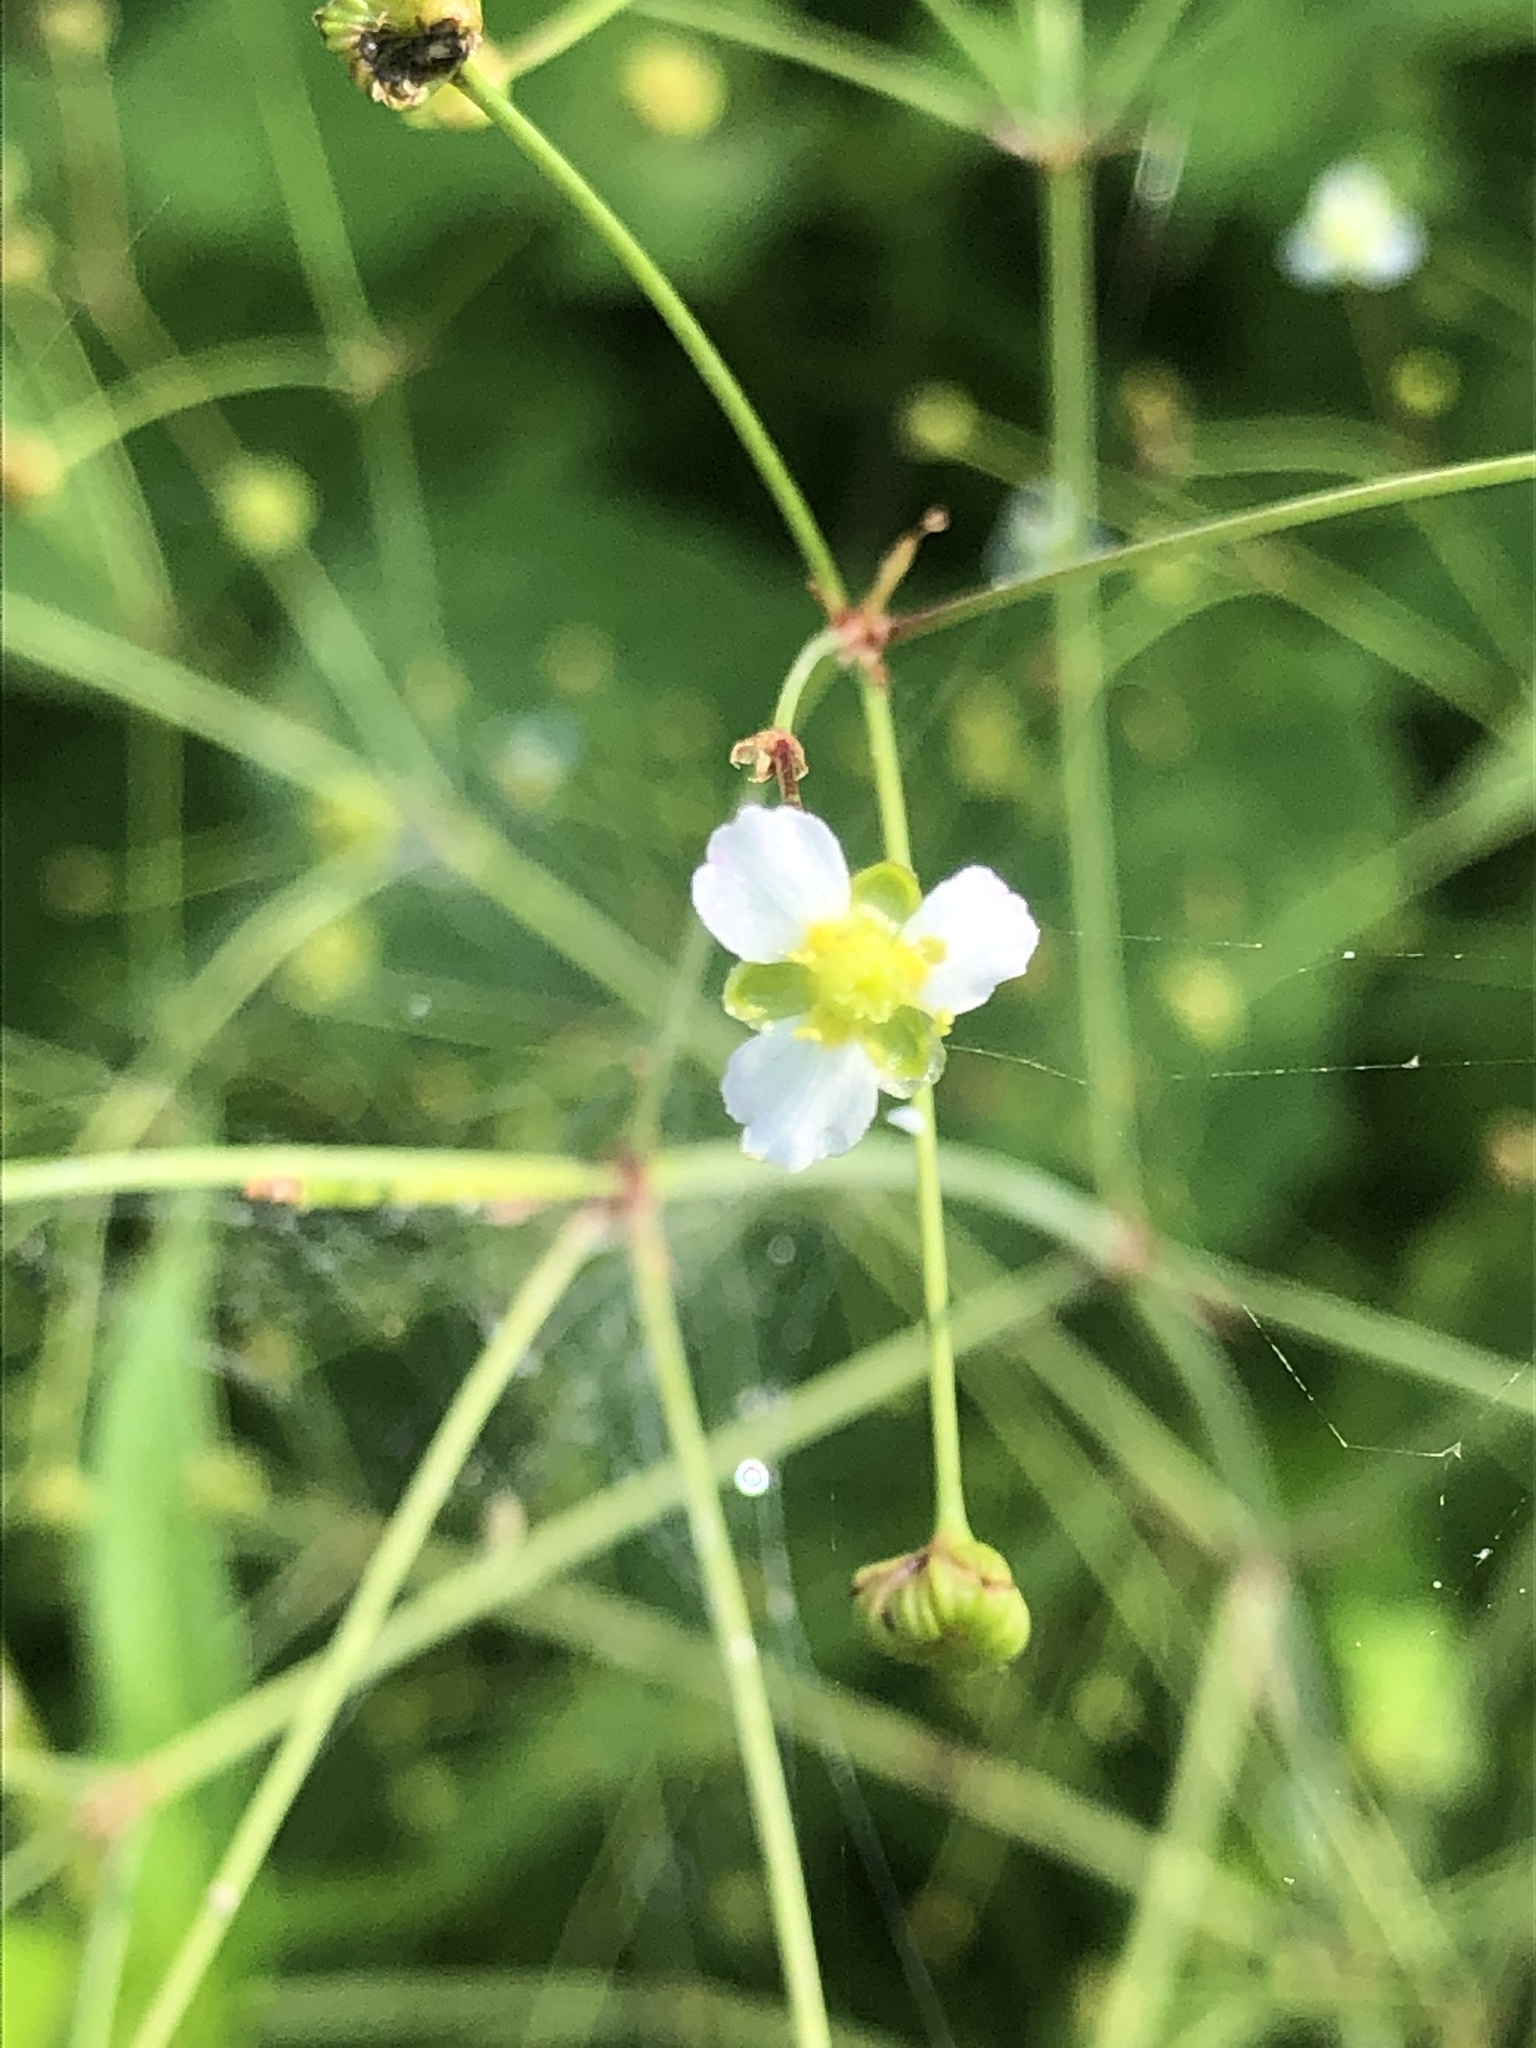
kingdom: Plantae
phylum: Tracheophyta
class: Liliopsida
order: Alismatales
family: Alismataceae
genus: Alisma
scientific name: Alisma triviale
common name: Northern water-plantain
